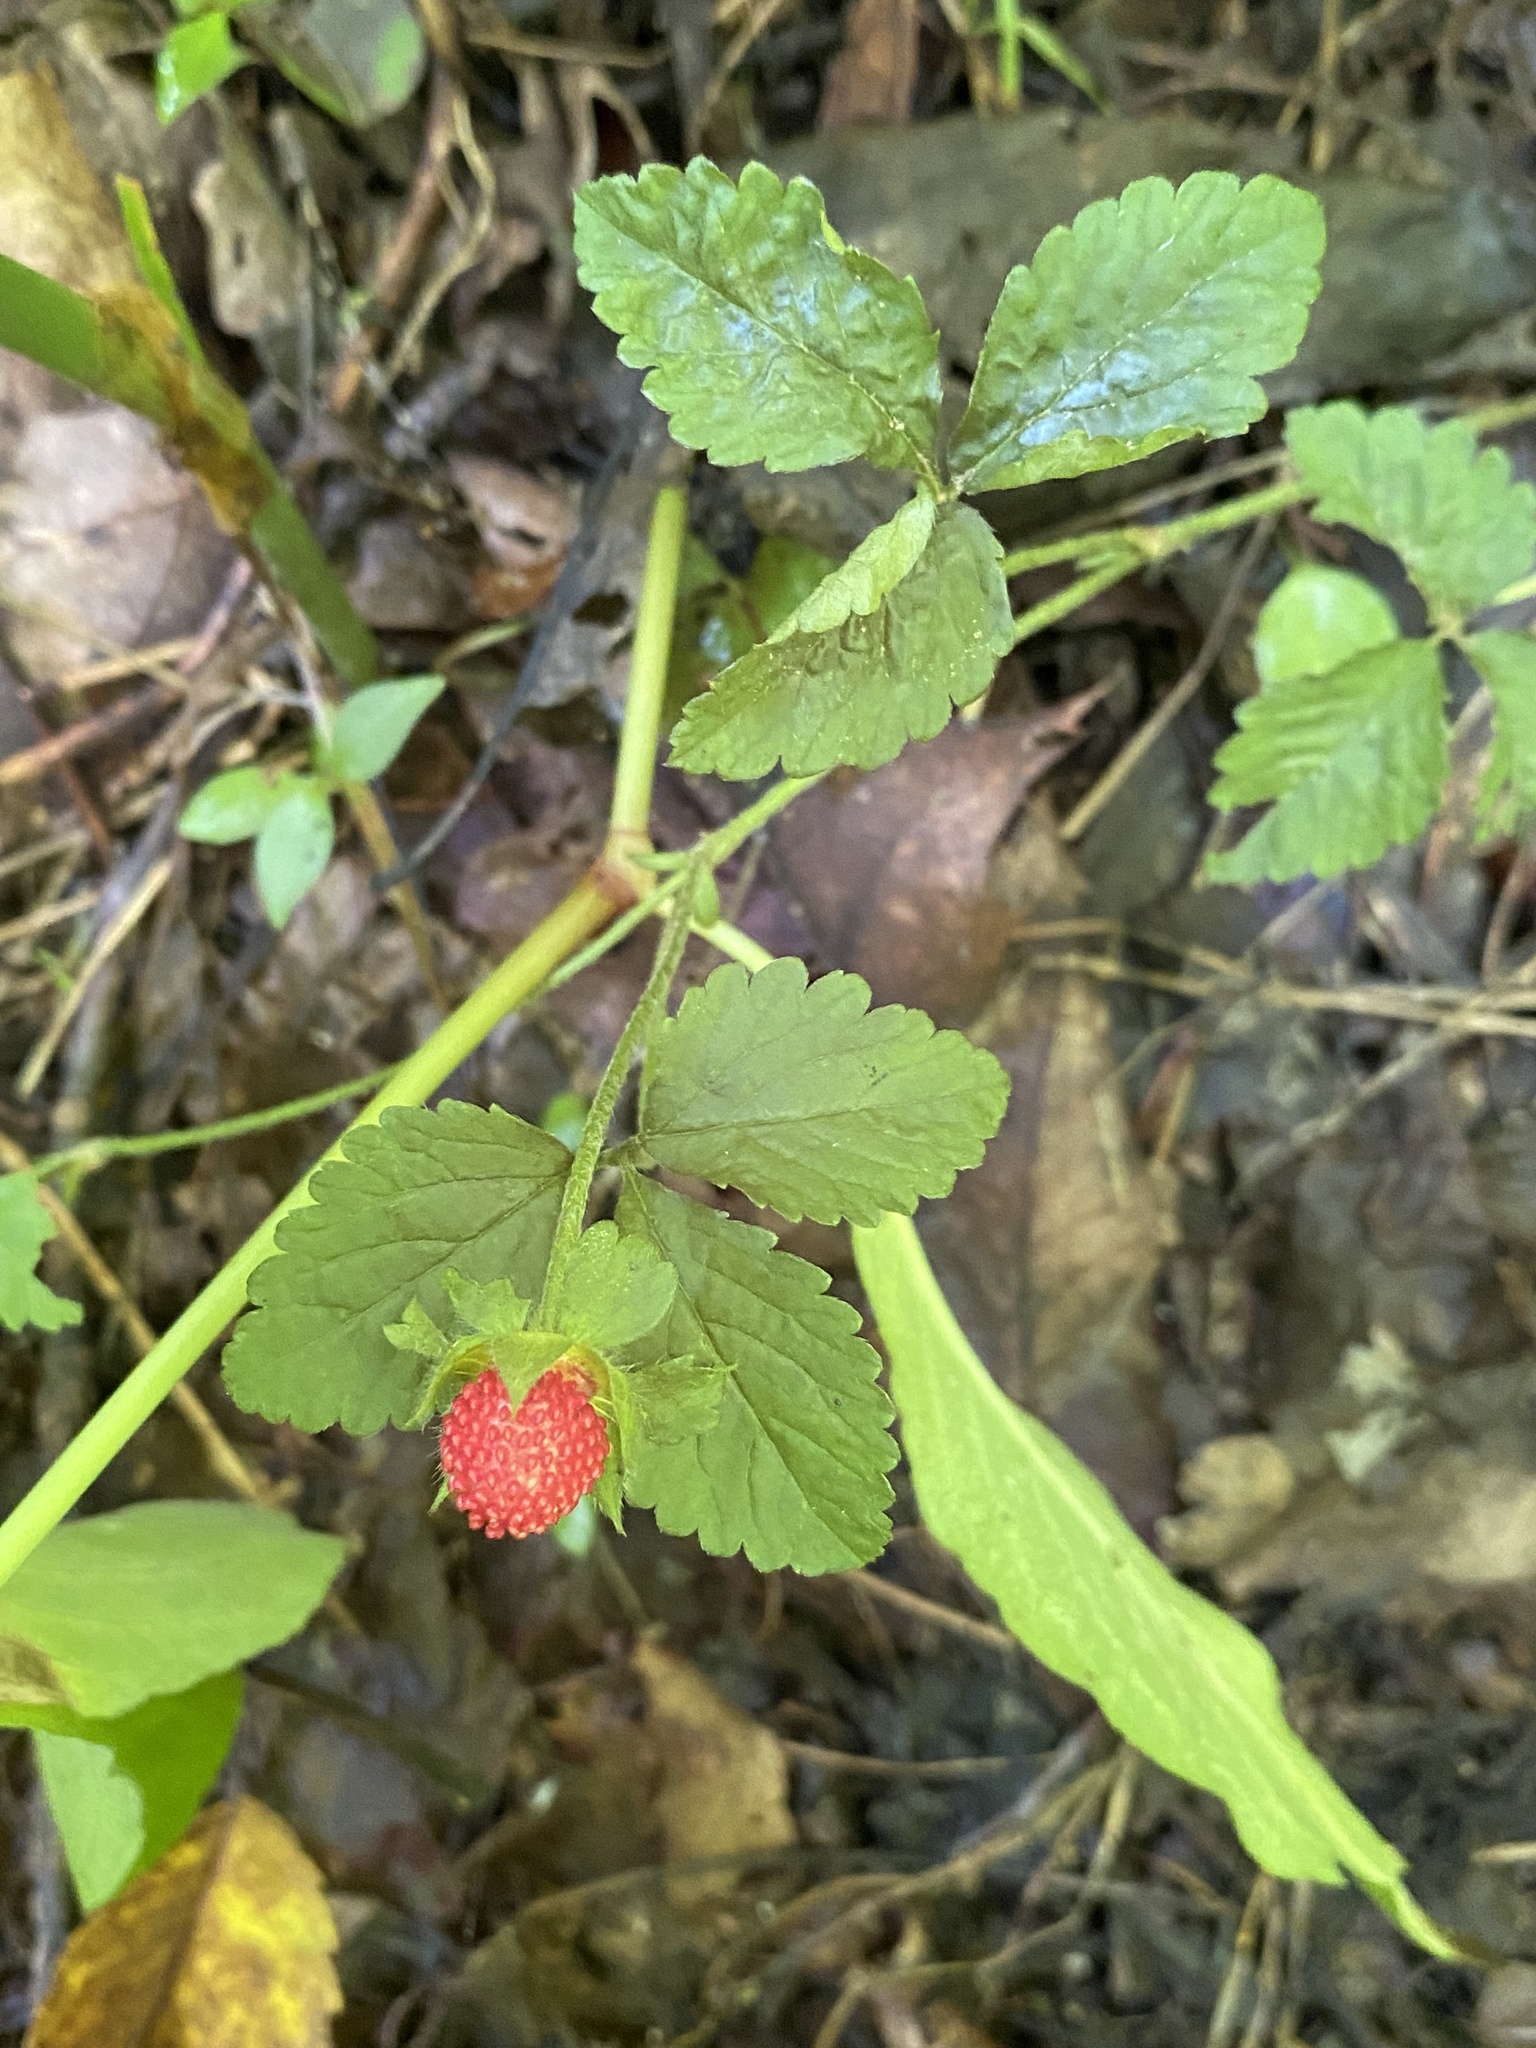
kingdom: Plantae
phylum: Tracheophyta
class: Magnoliopsida
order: Rosales
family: Rosaceae
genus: Potentilla
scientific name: Potentilla indica
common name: Yellow-flowered strawberry
